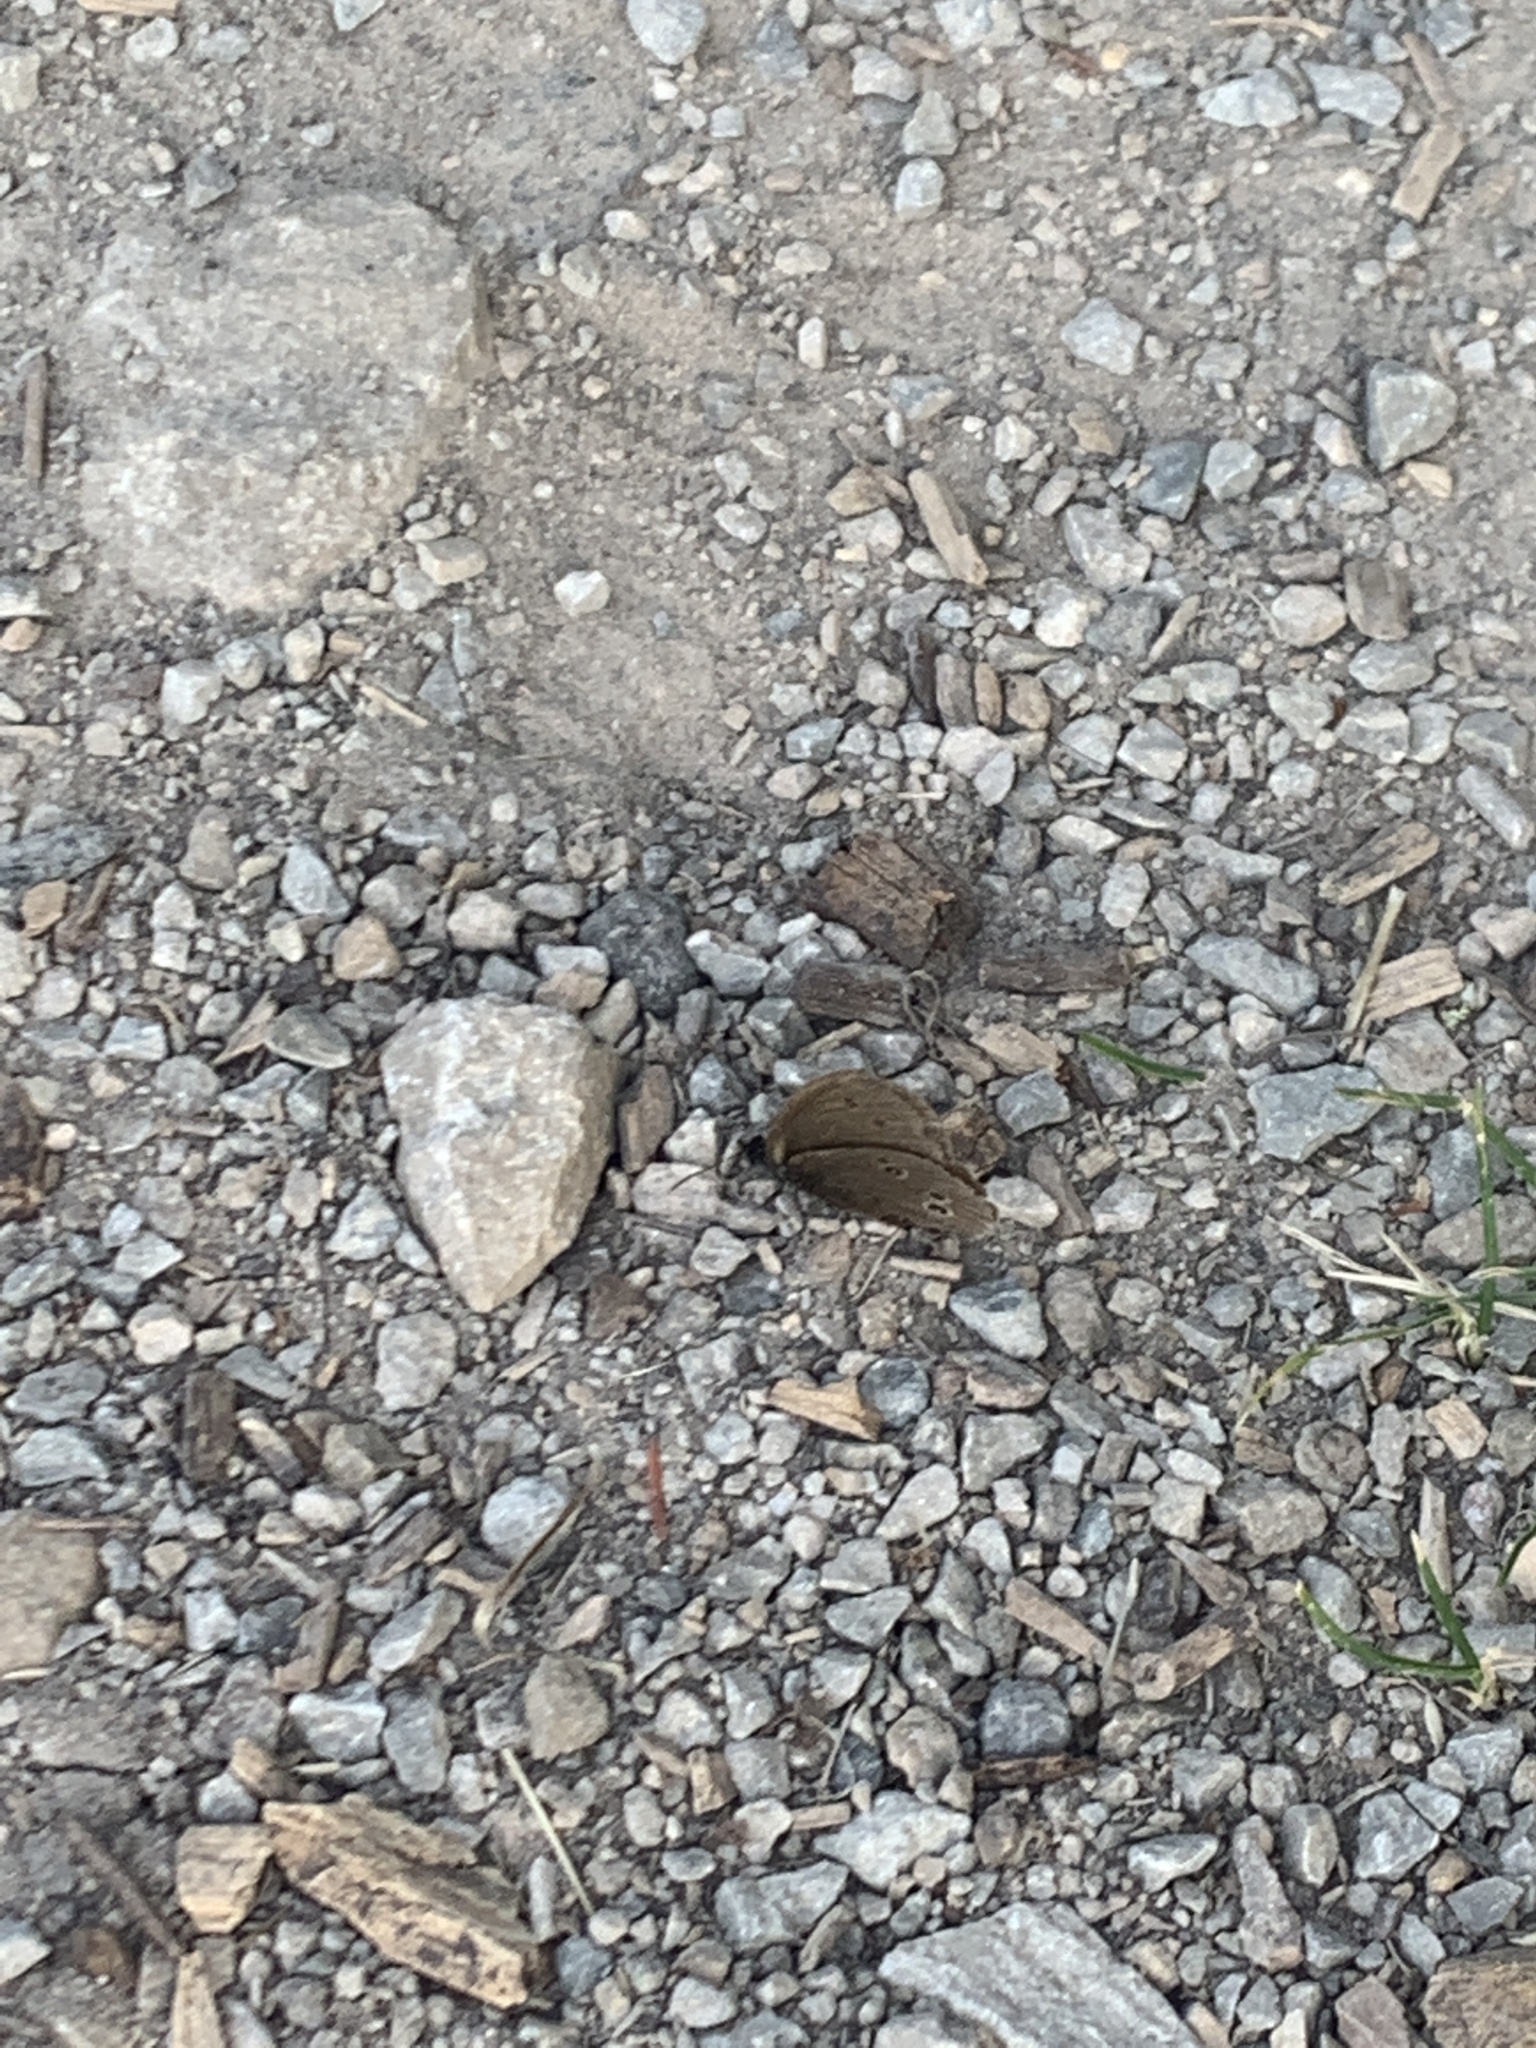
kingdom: Animalia
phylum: Arthropoda
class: Insecta
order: Lepidoptera
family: Nymphalidae
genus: Aphantopus
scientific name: Aphantopus hyperantus
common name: Ringlet
